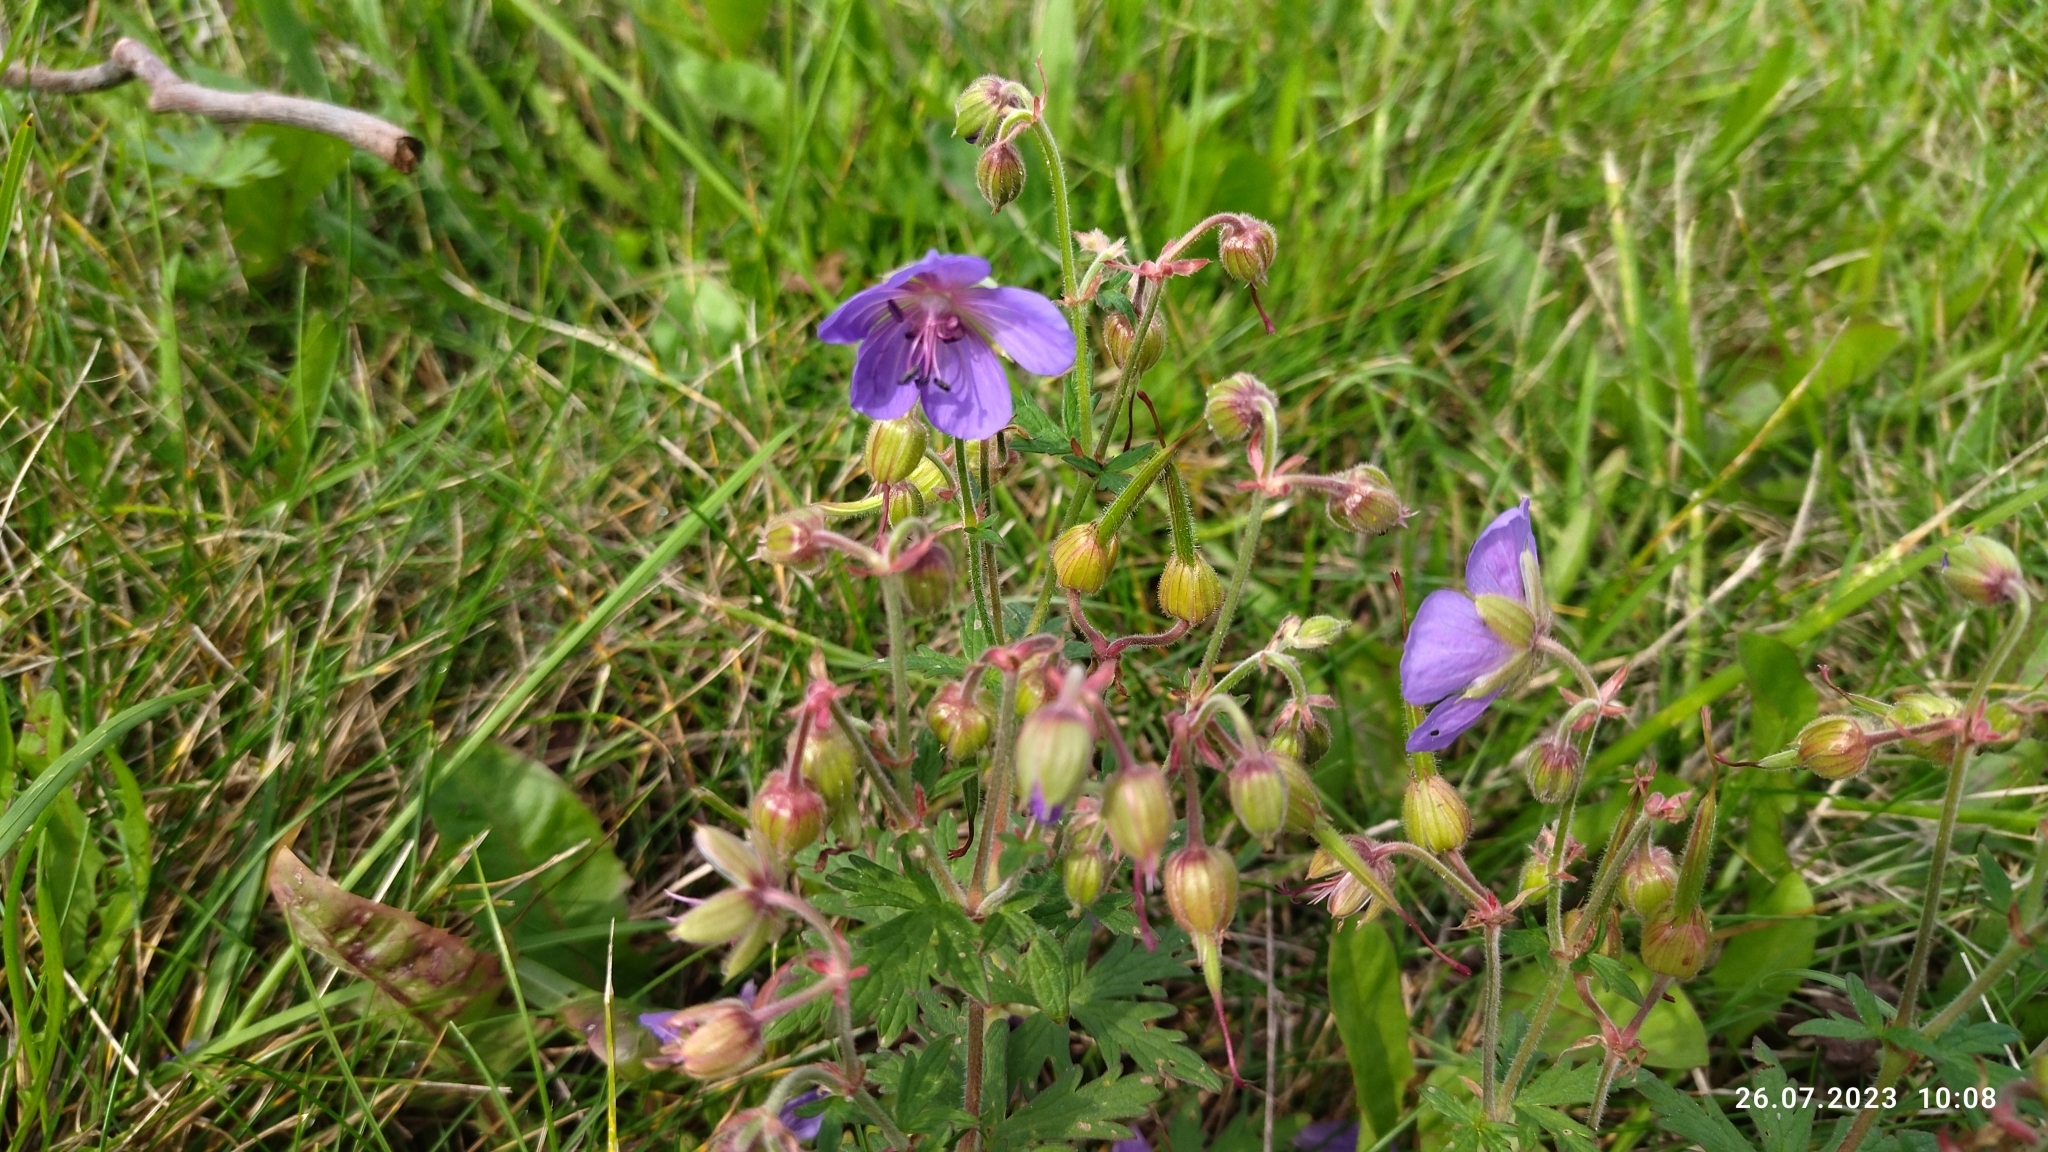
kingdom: Plantae
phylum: Tracheophyta
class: Magnoliopsida
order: Geraniales
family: Geraniaceae
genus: Geranium
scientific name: Geranium pratense
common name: Meadow crane's-bill
